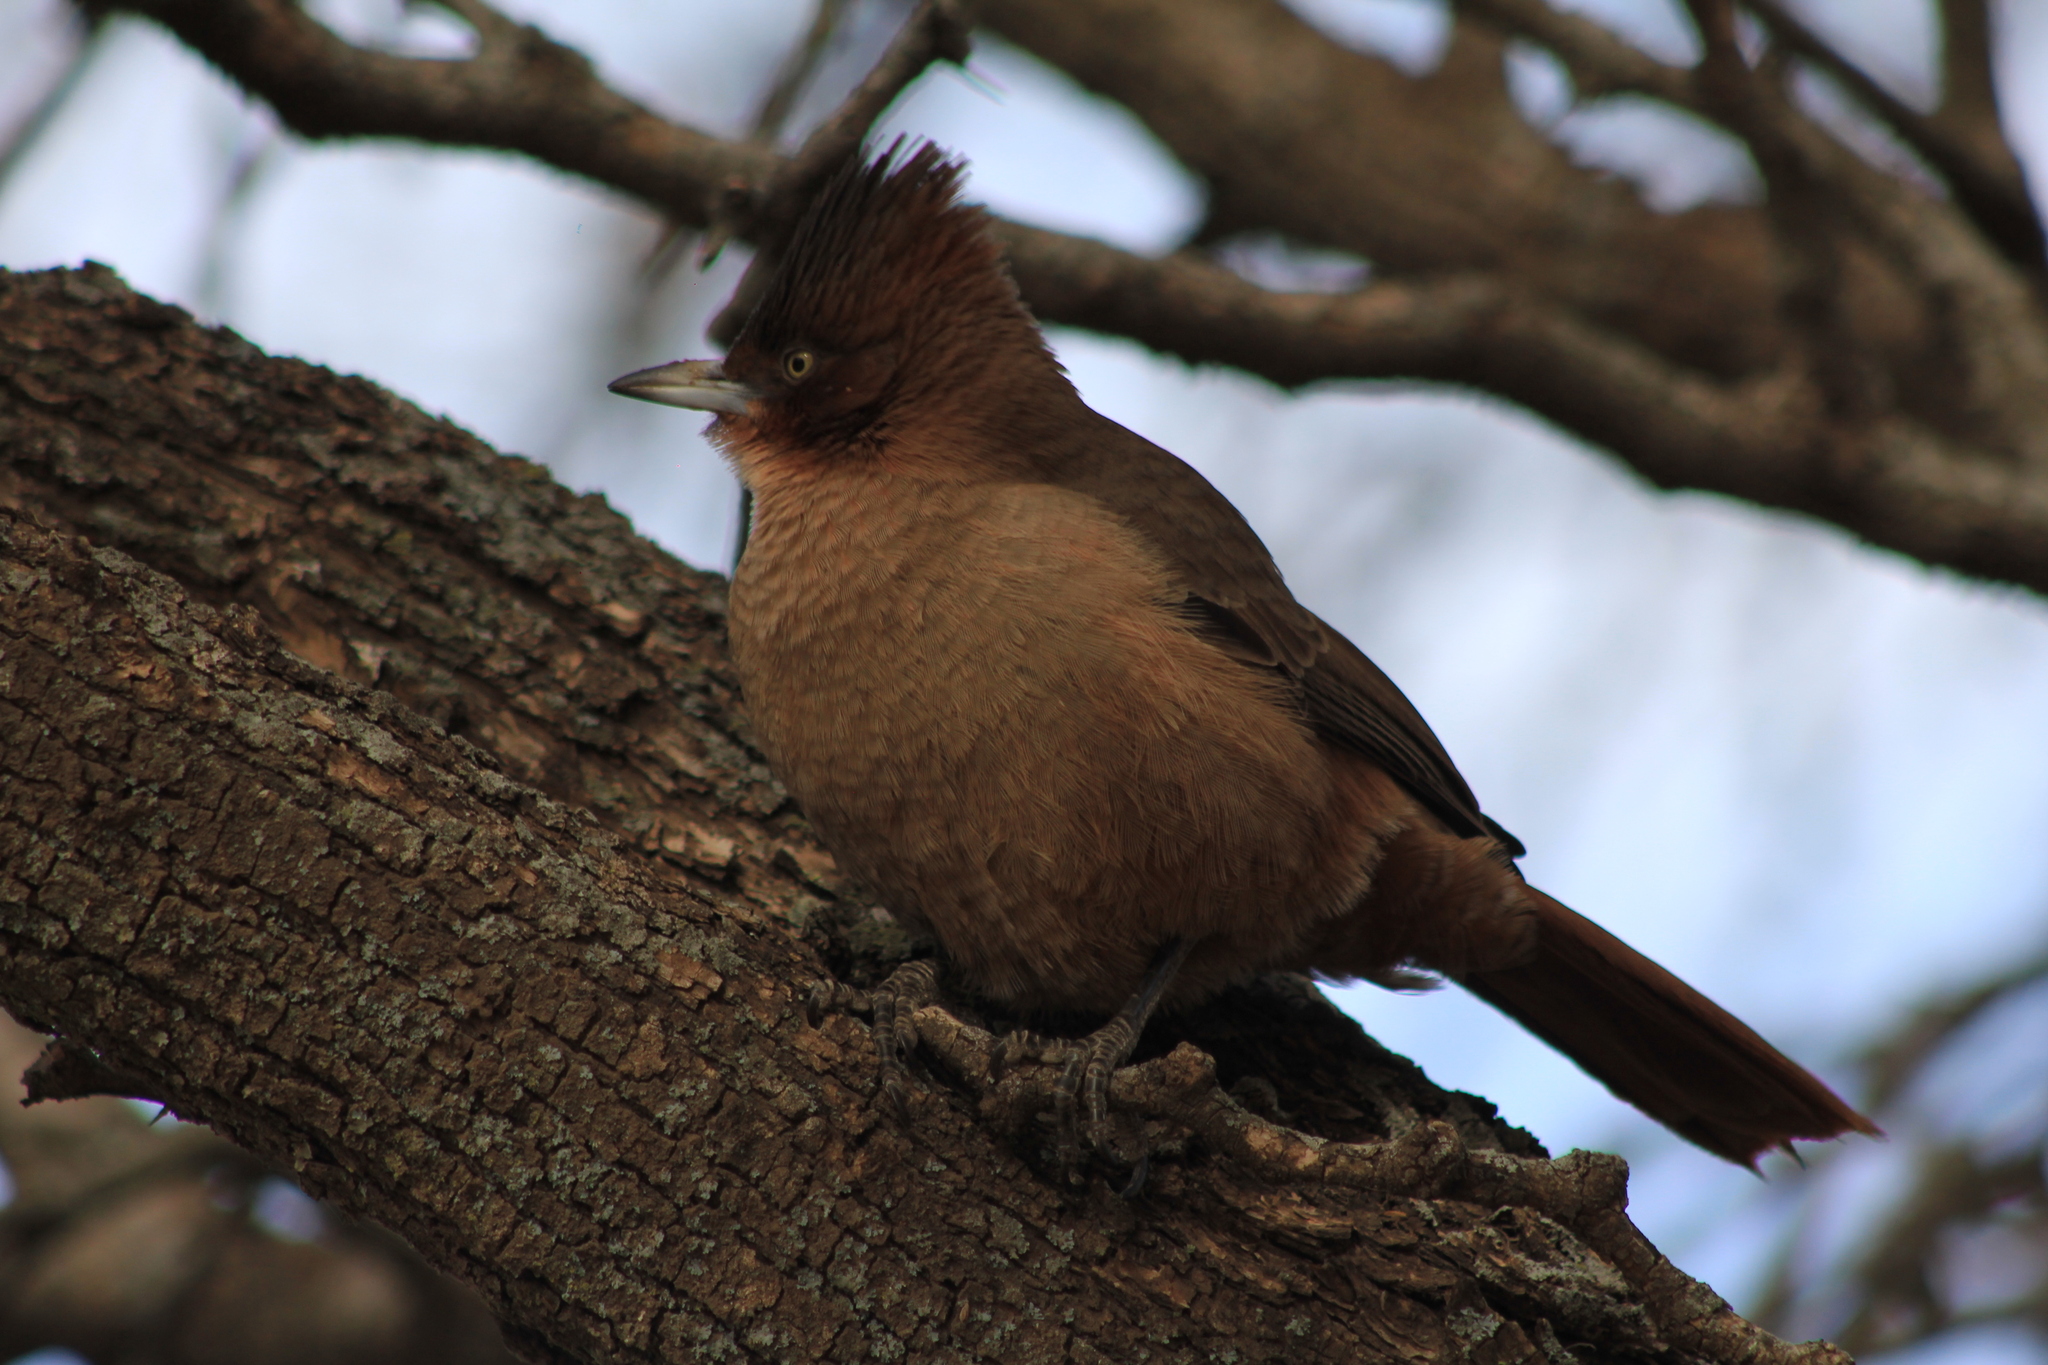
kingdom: Animalia
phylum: Chordata
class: Aves
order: Passeriformes
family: Furnariidae
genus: Pseudoseisura
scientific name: Pseudoseisura lophotes
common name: Brown cacholote
